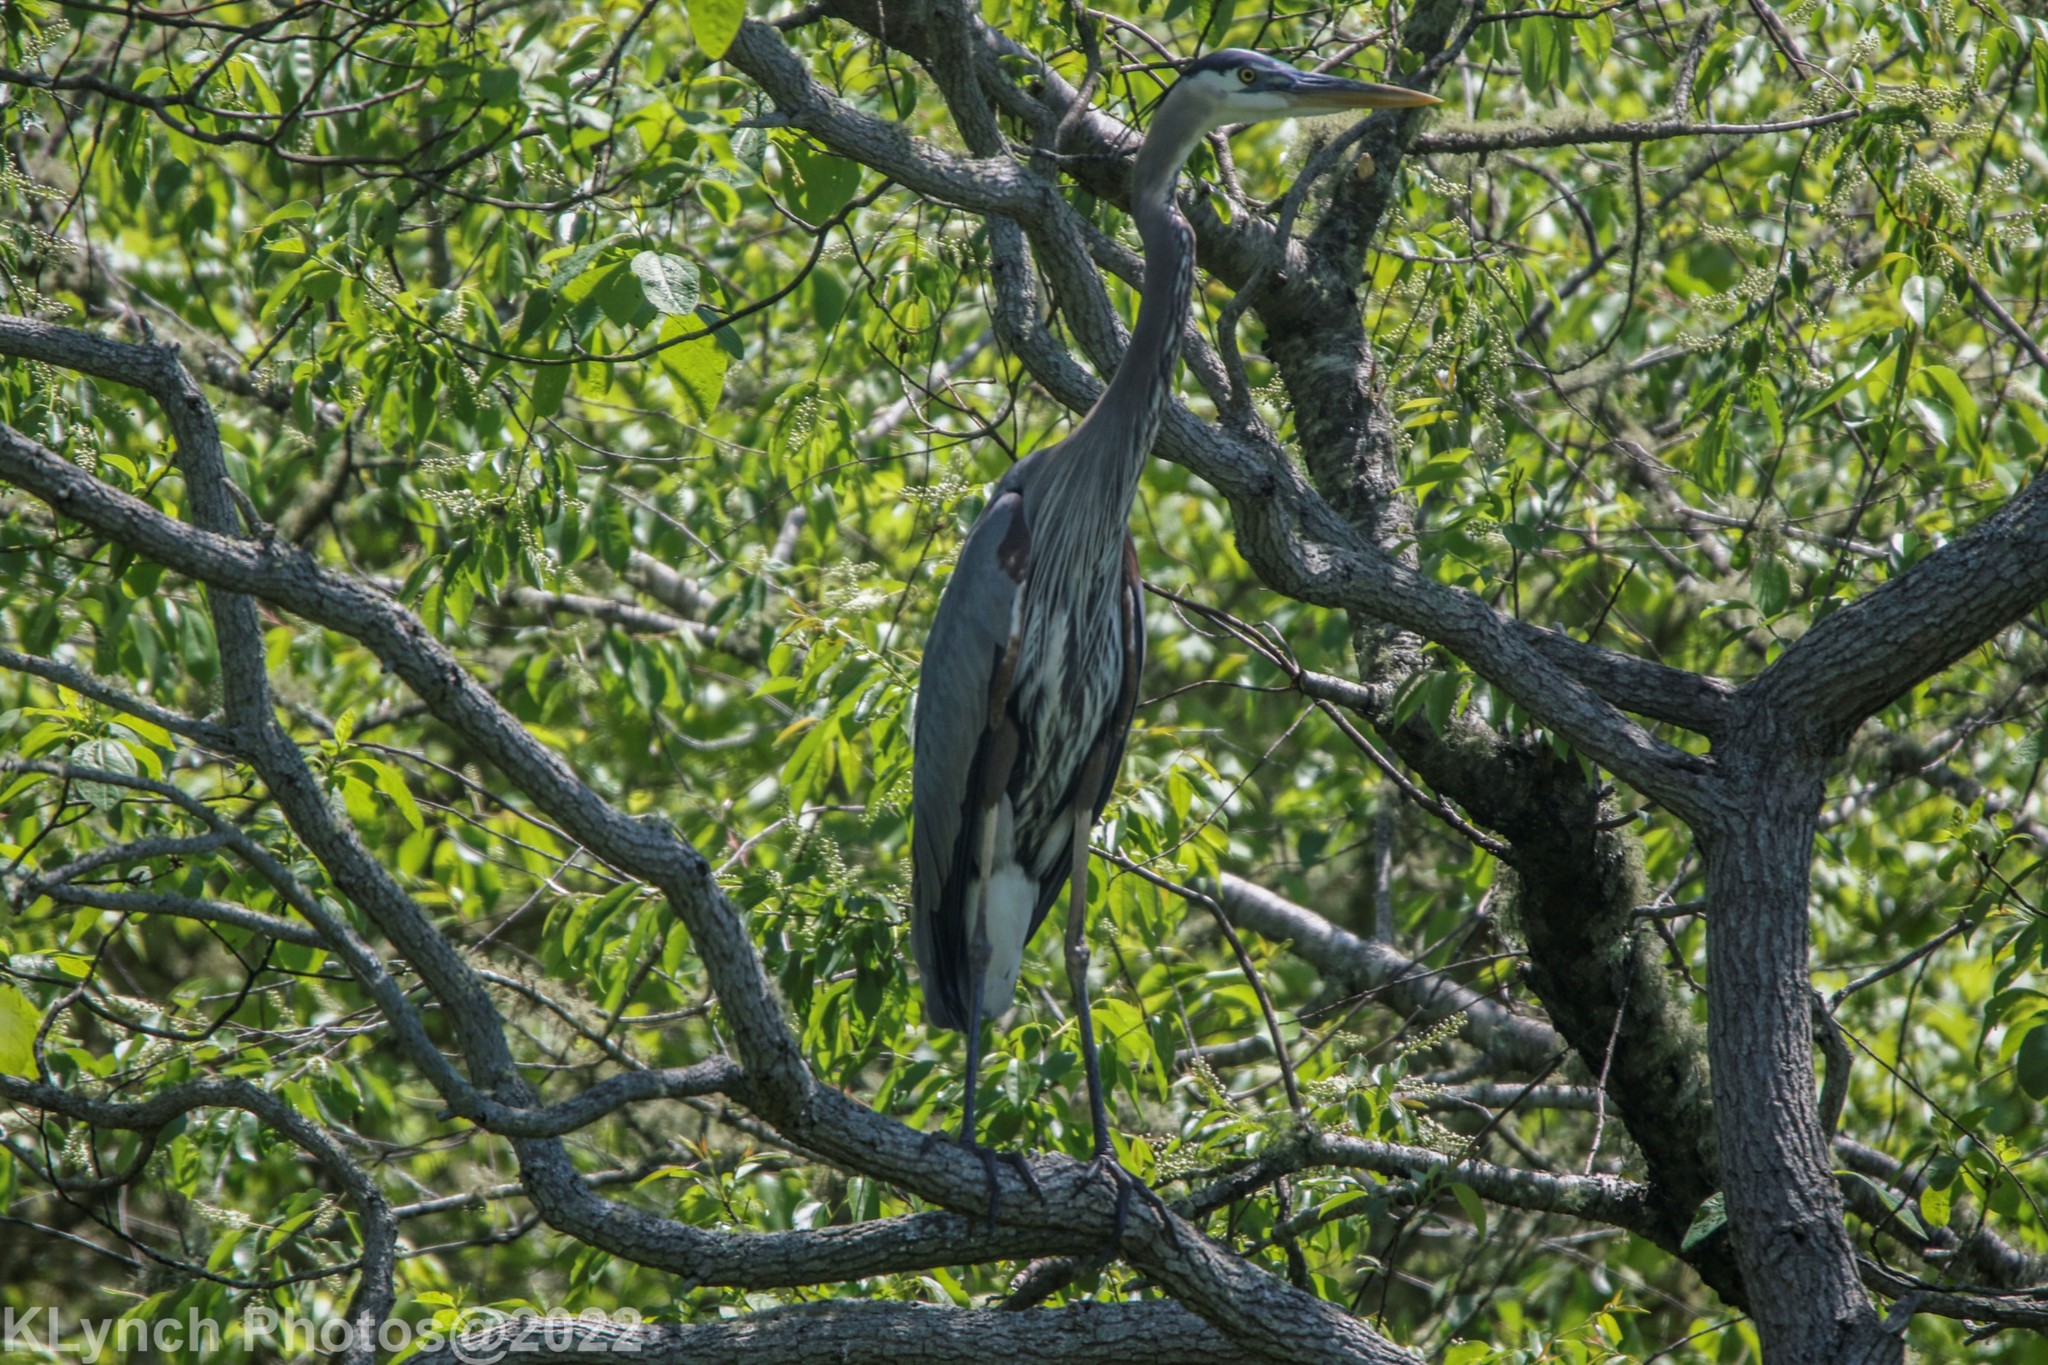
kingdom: Animalia
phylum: Chordata
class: Aves
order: Pelecaniformes
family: Ardeidae
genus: Ardea
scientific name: Ardea herodias
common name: Great blue heron
